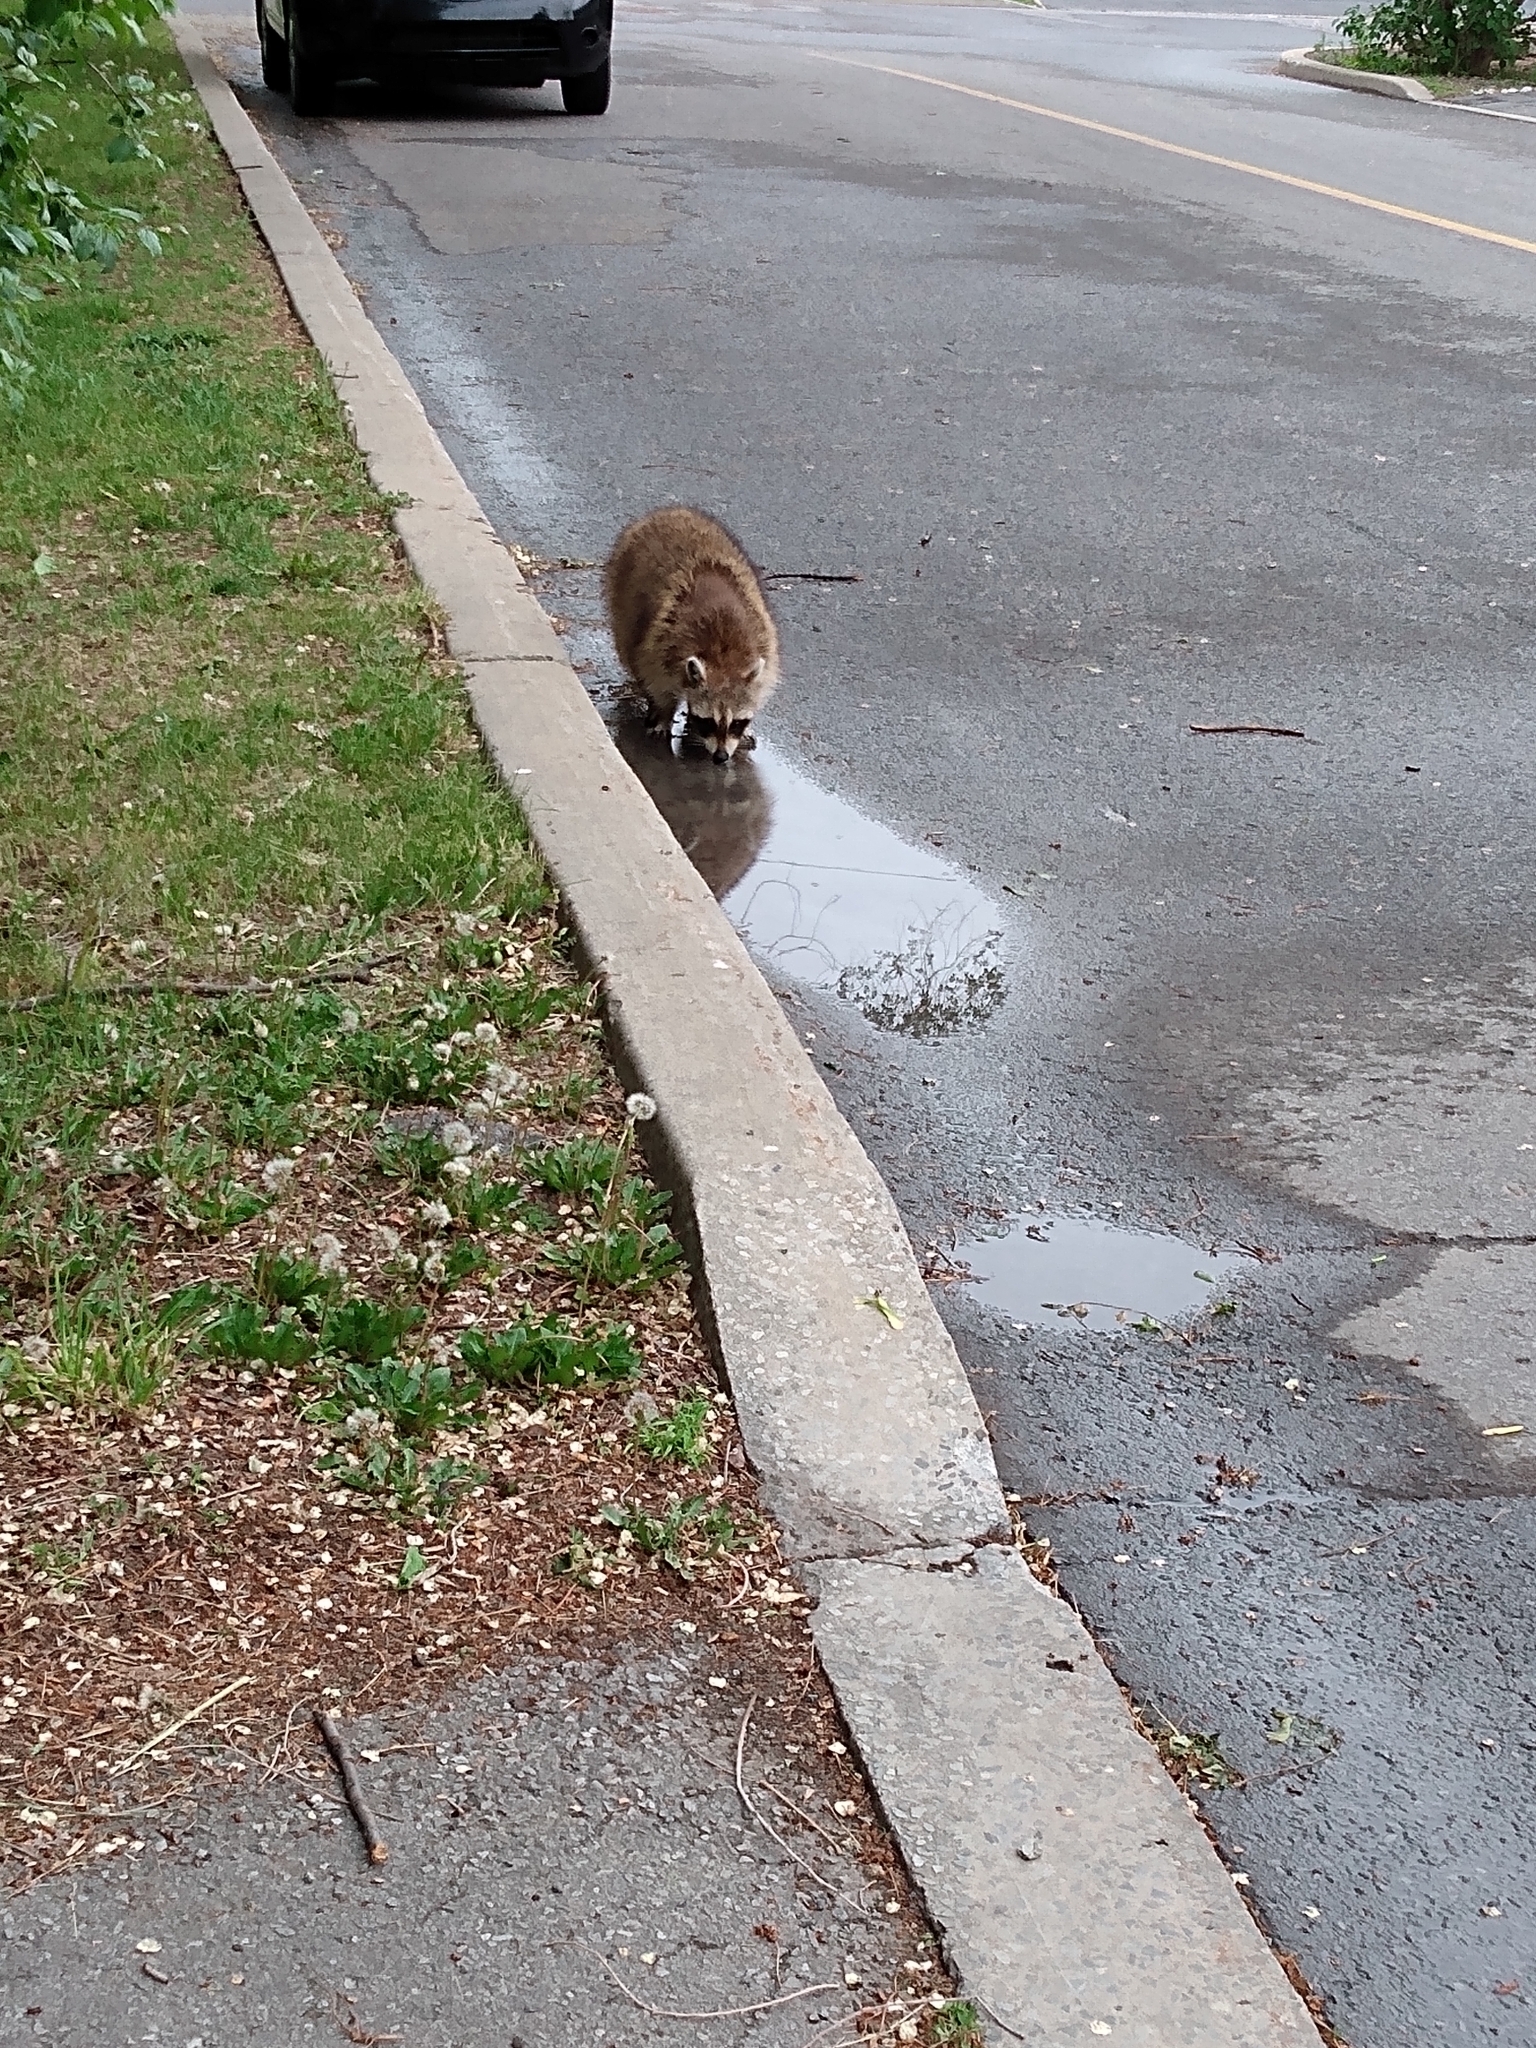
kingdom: Animalia
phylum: Chordata
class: Mammalia
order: Carnivora
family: Procyonidae
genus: Procyon
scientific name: Procyon lotor
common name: Raccoon
